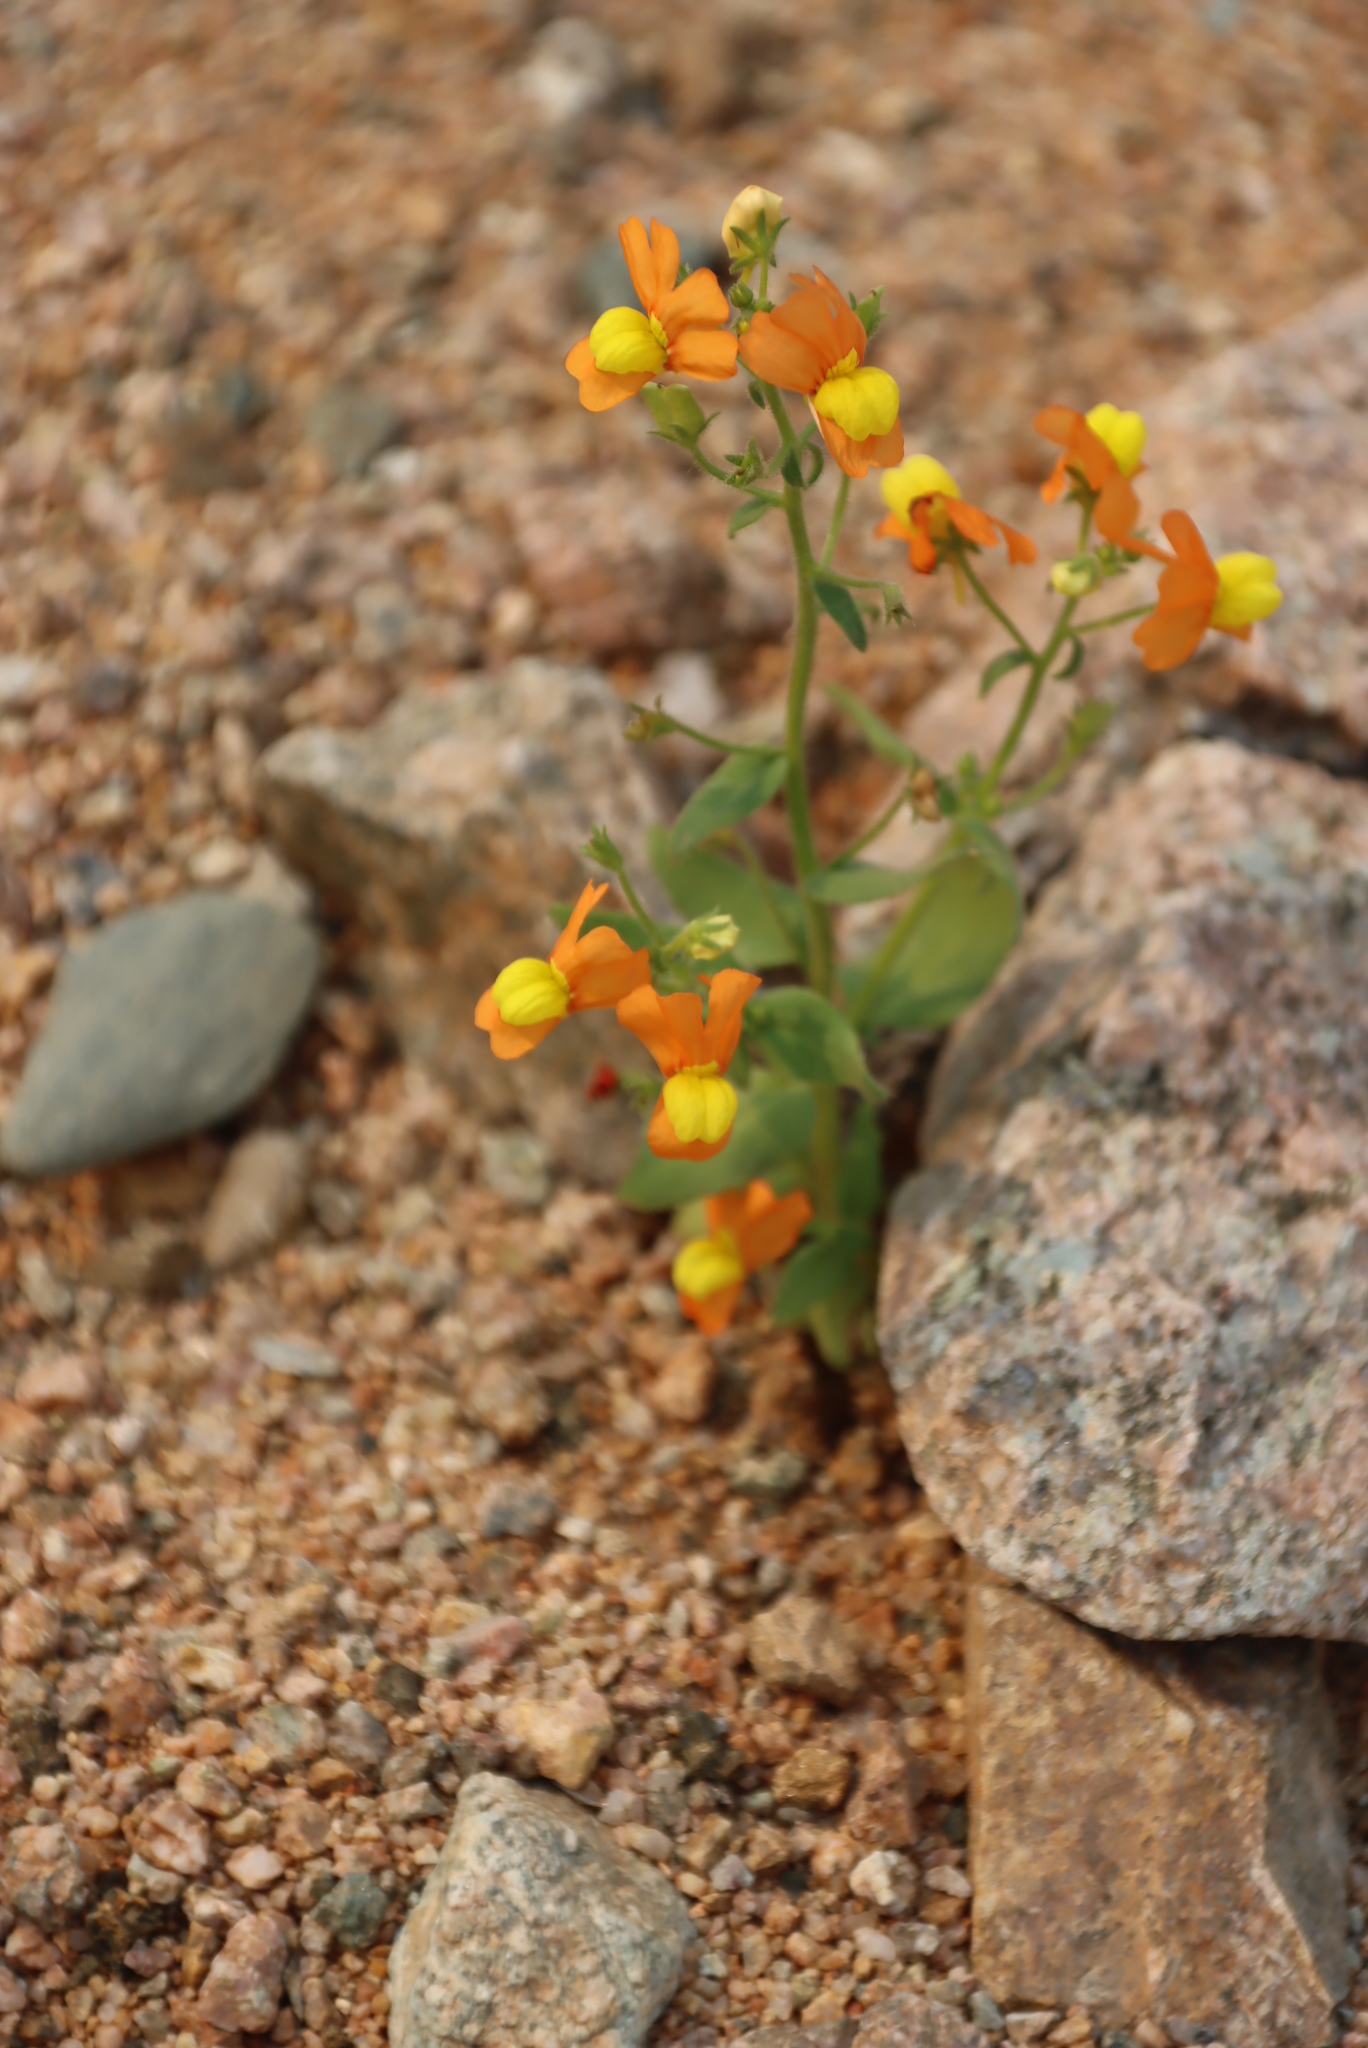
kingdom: Plantae
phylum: Tracheophyta
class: Magnoliopsida
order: Lamiales
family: Scrophulariaceae
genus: Nemesia
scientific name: Nemesia williamsonii
